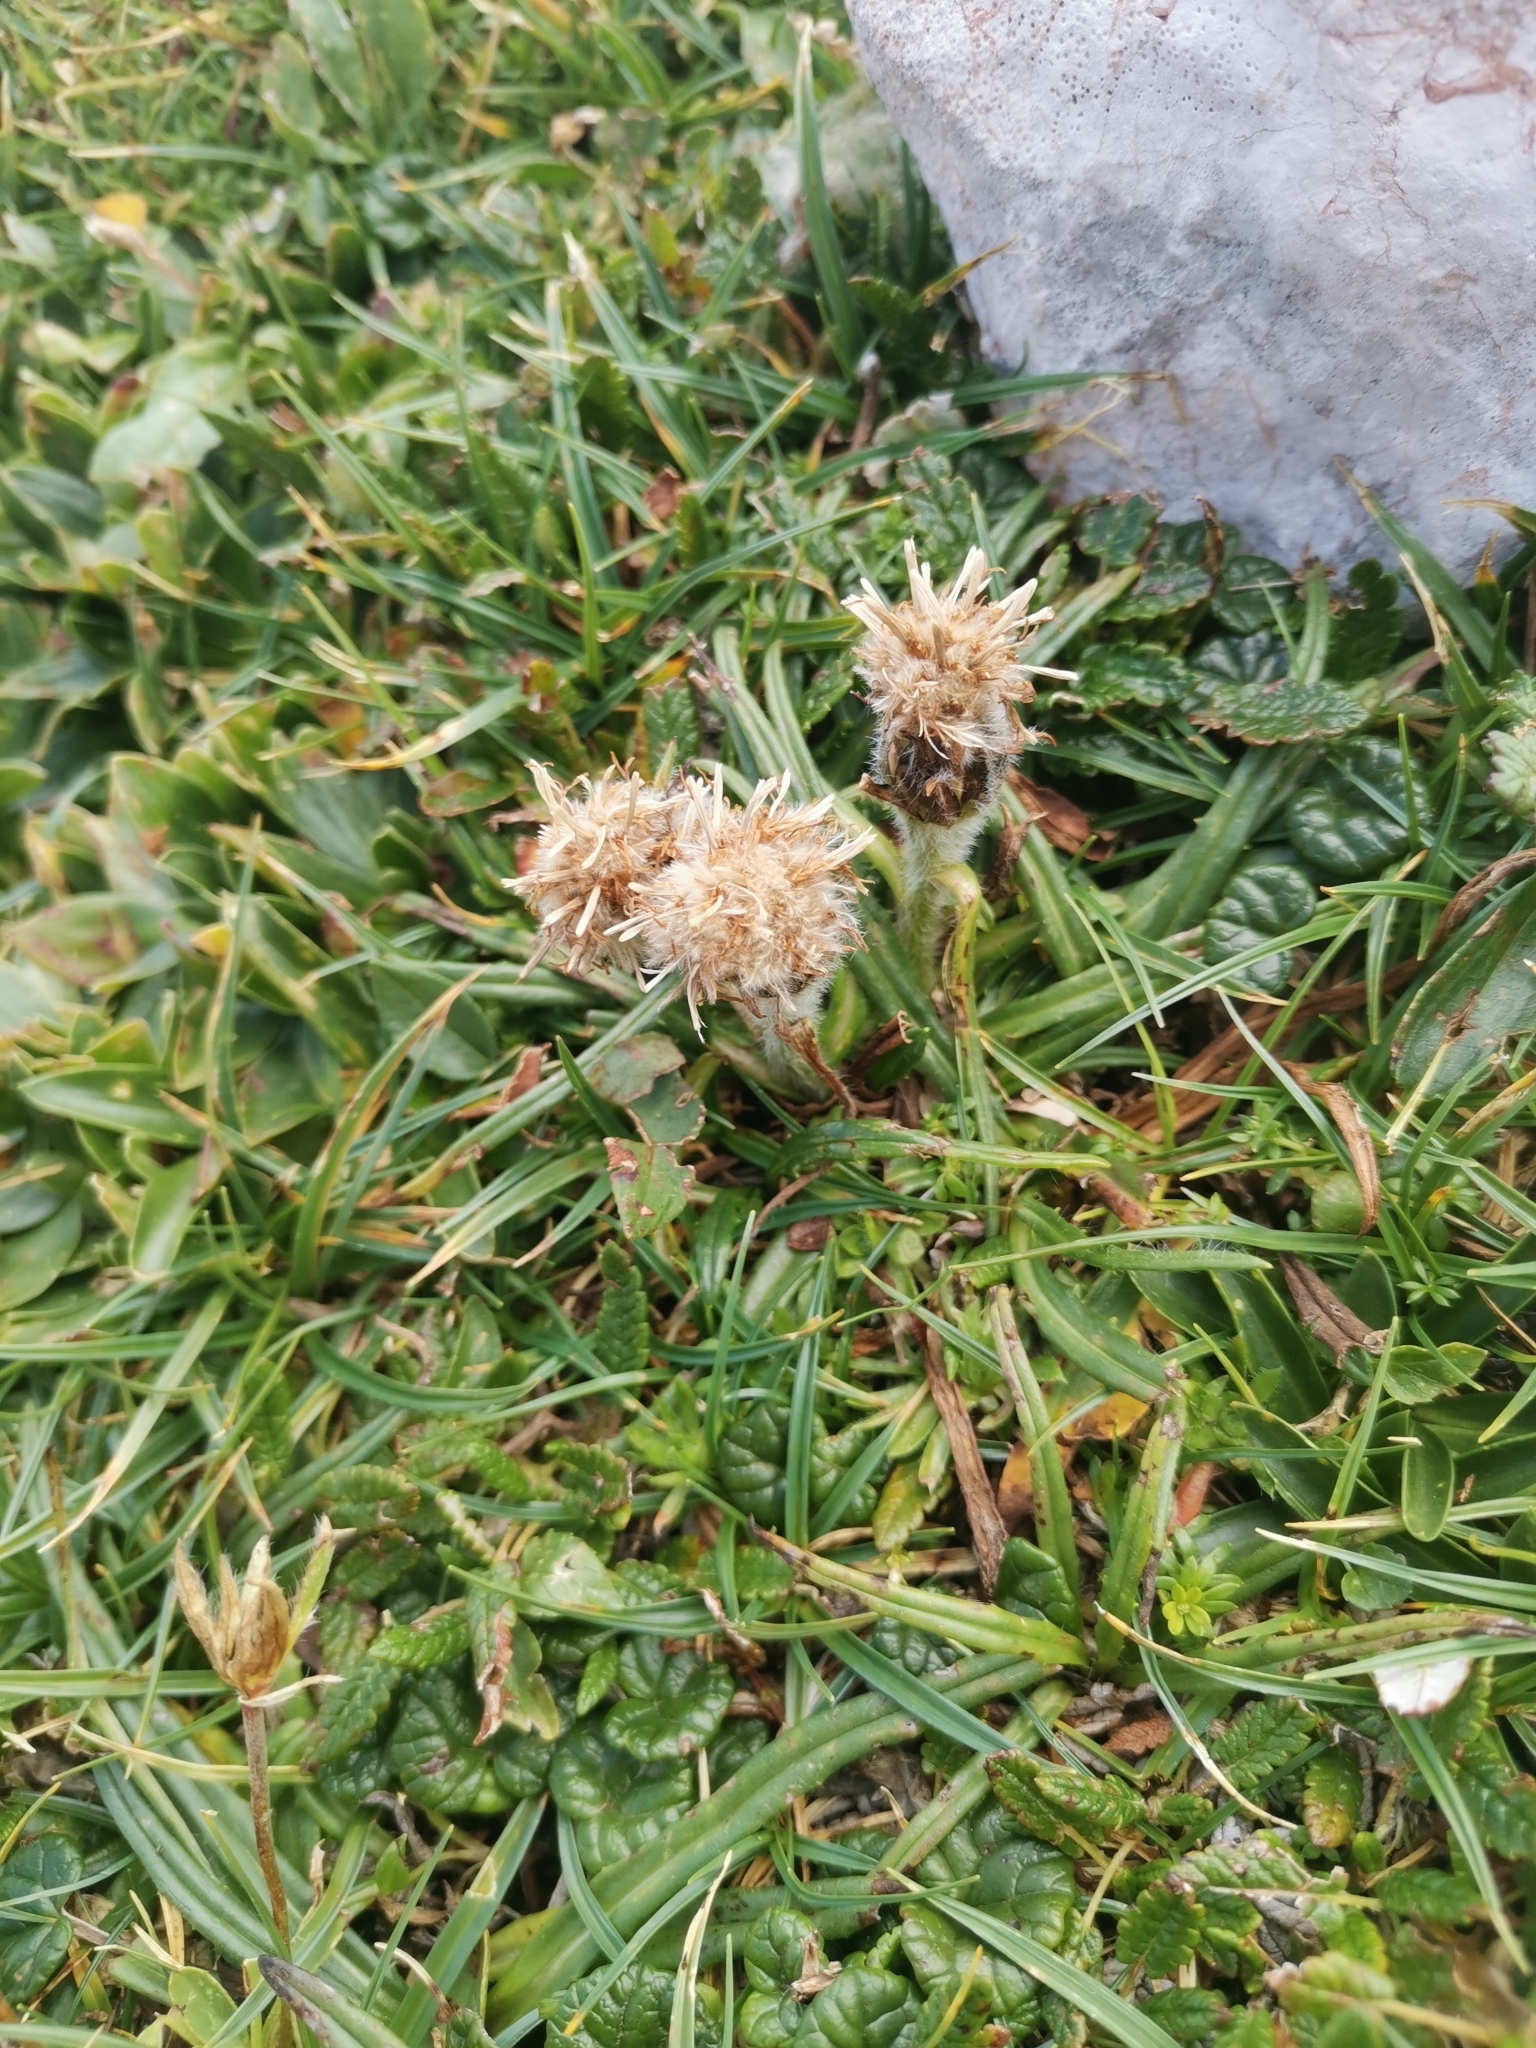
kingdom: Plantae
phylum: Tracheophyta
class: Magnoliopsida
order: Asterales
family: Asteraceae
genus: Saussurea
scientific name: Saussurea pygmaea
